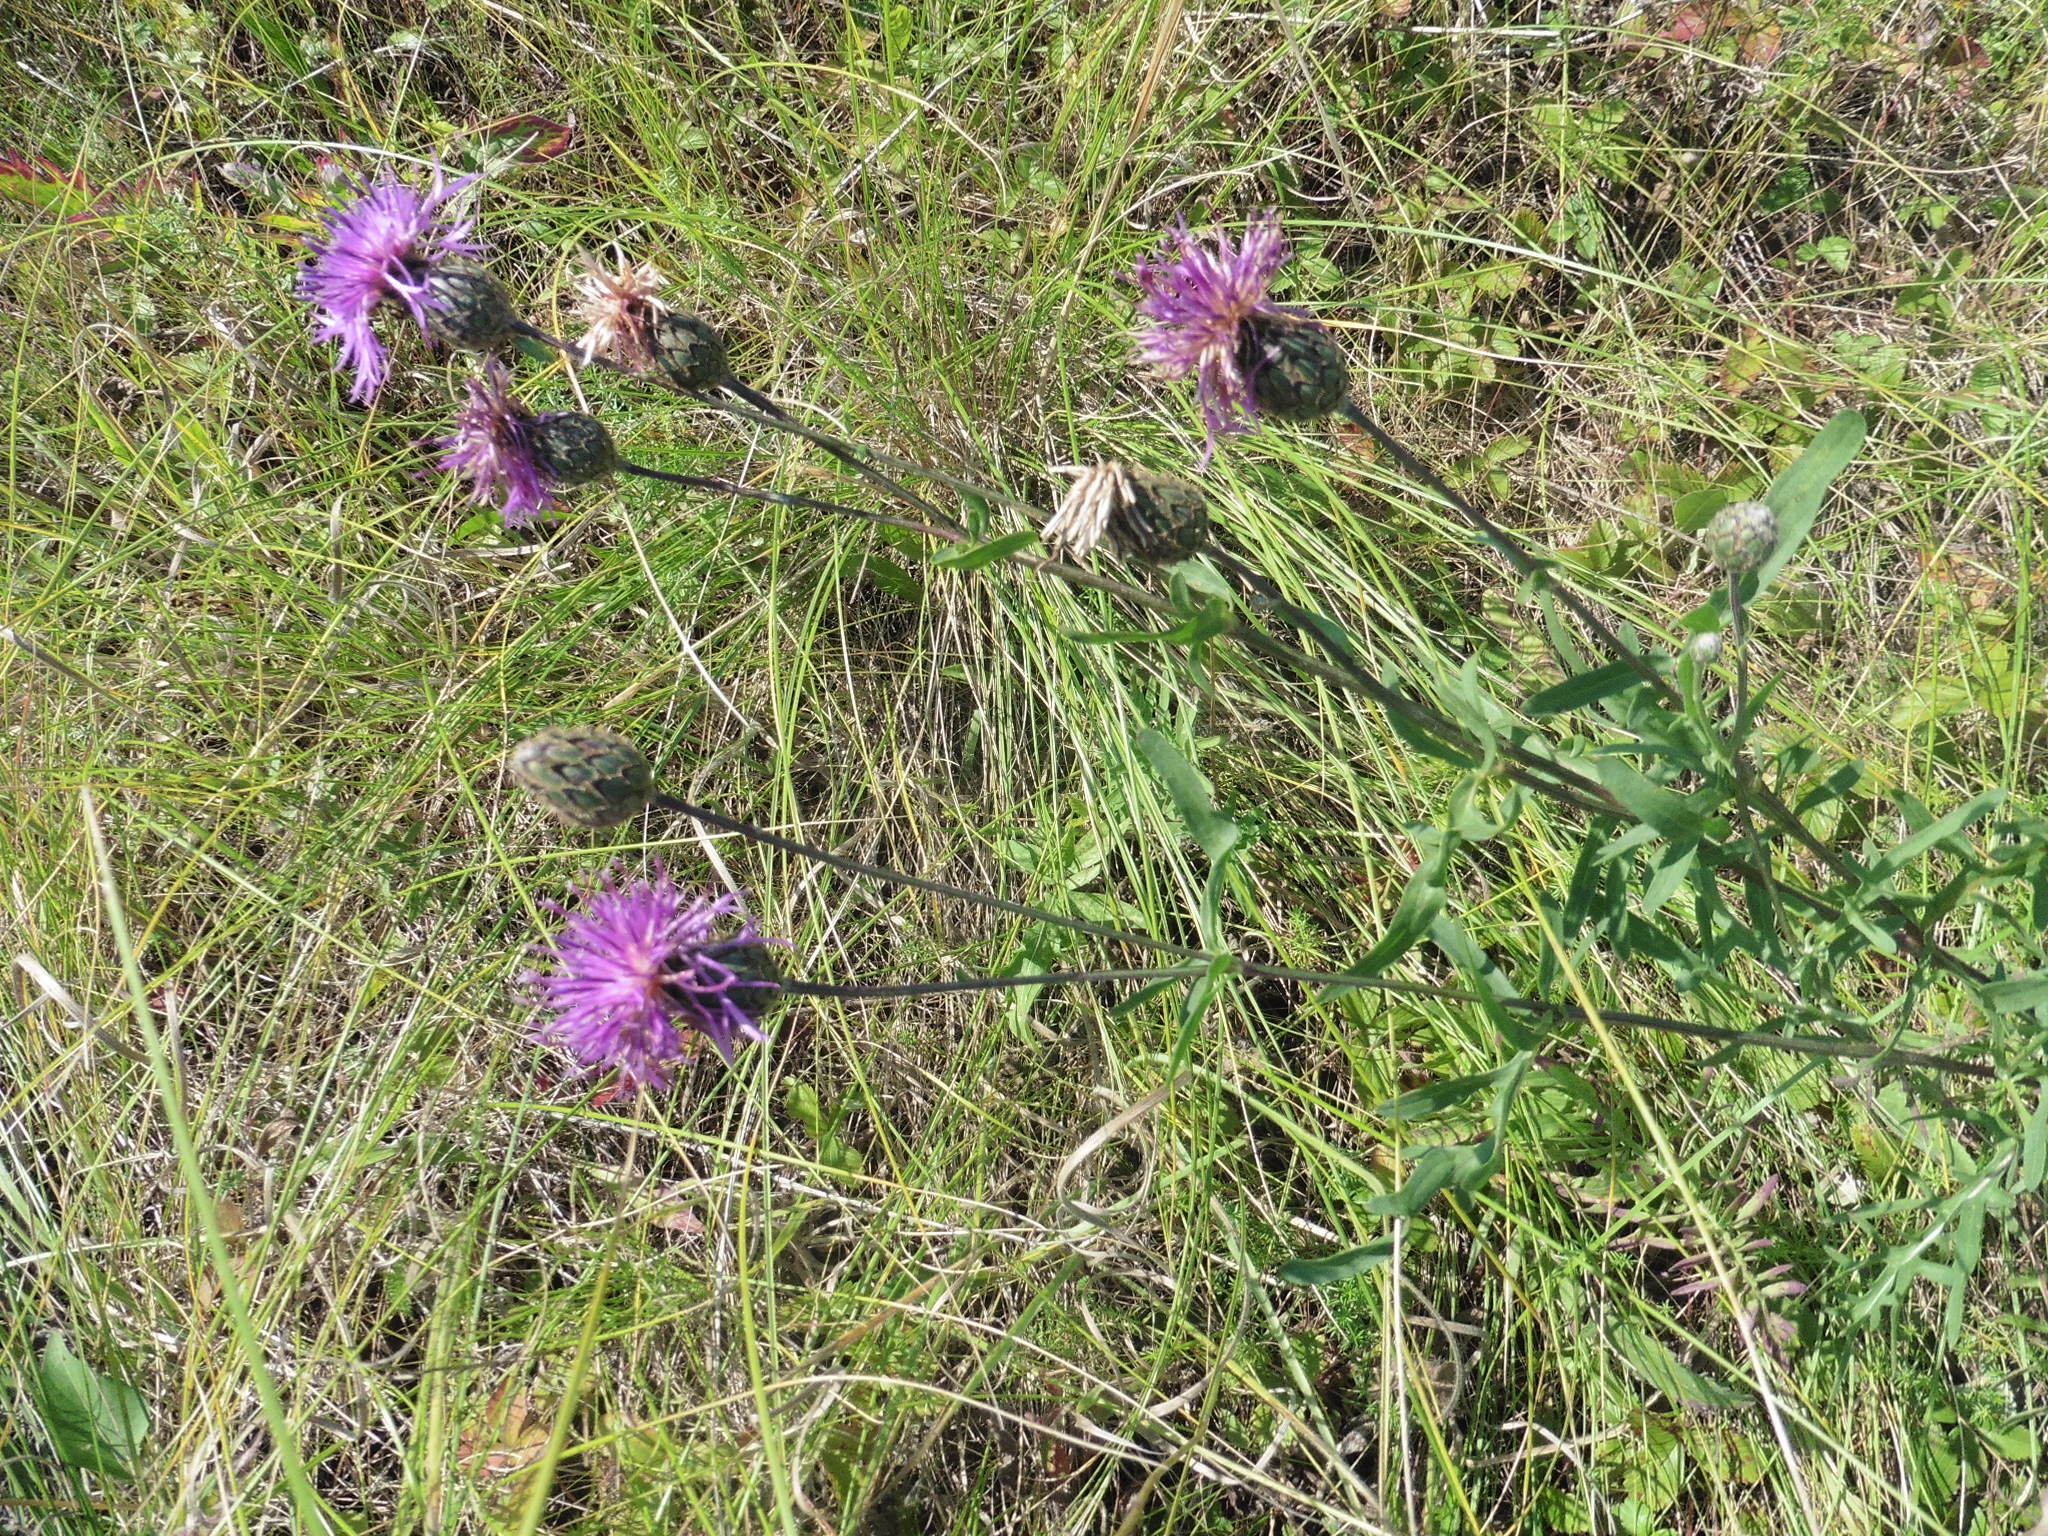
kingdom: Plantae
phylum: Tracheophyta
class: Magnoliopsida
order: Asterales
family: Asteraceae
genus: Centaurea
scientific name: Centaurea scabiosa
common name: Greater knapweed
